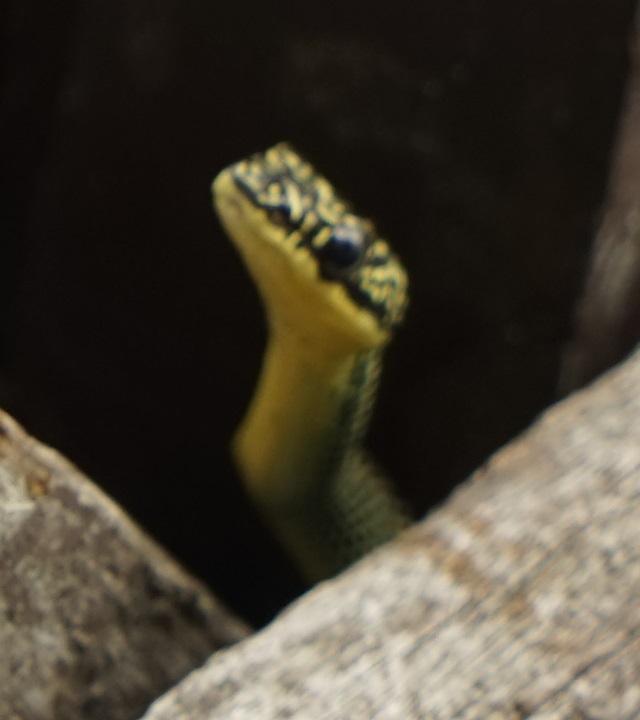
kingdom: Animalia
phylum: Chordata
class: Squamata
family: Colubridae
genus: Chrysopelea
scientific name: Chrysopelea paradisi
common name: Paradise tree snake
